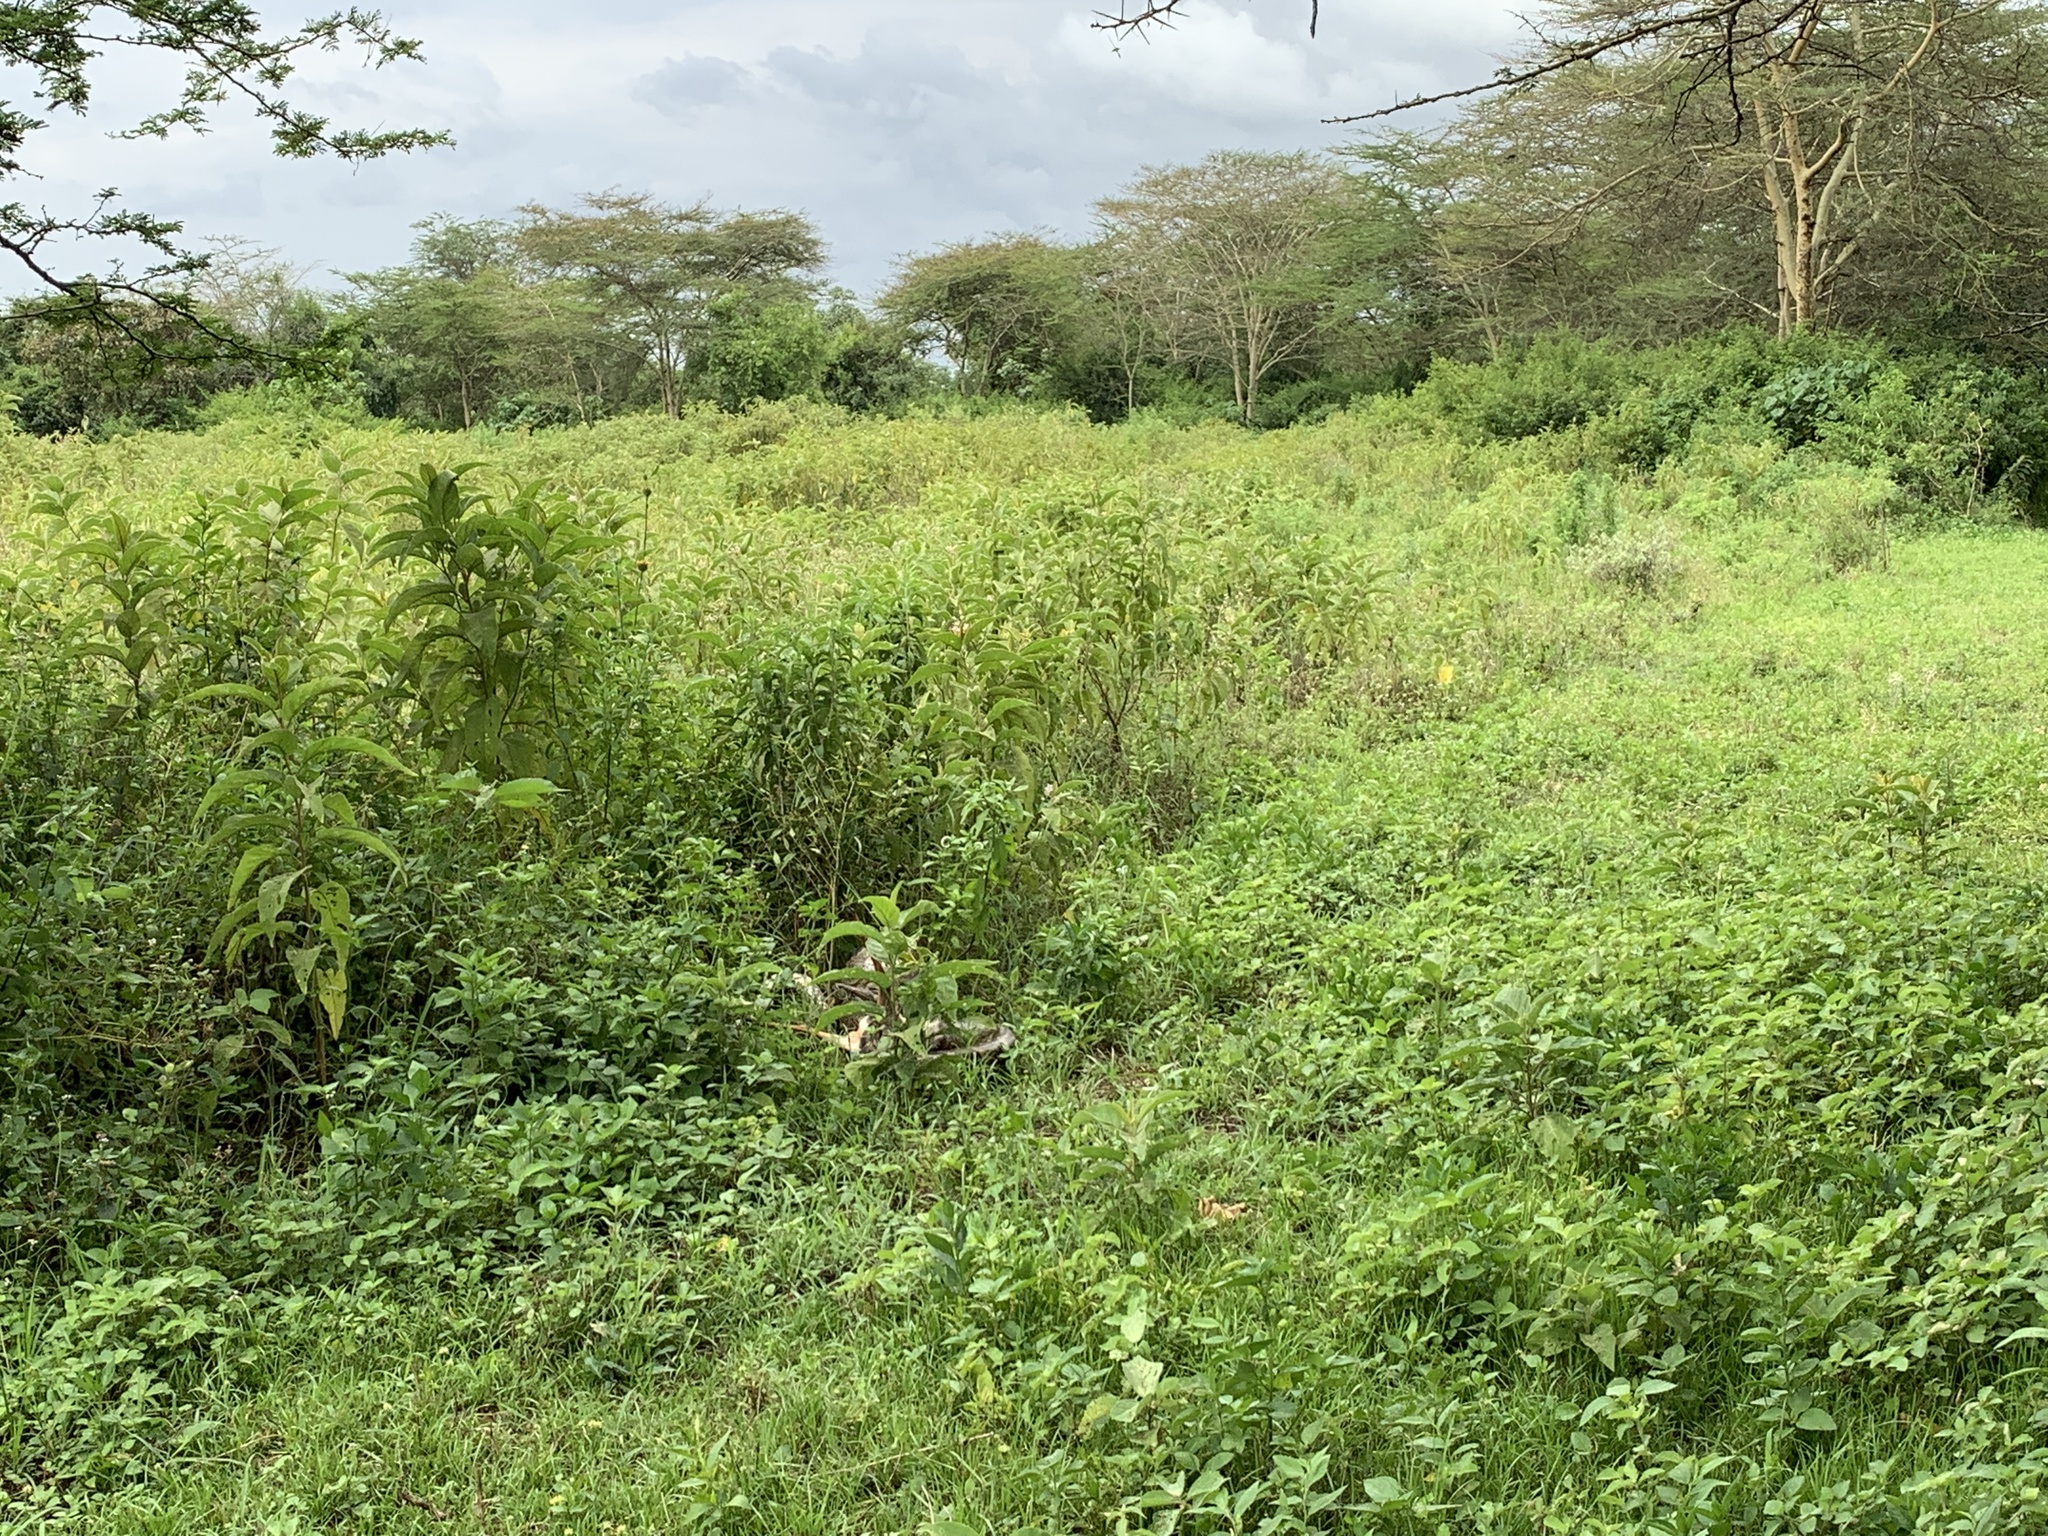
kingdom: Animalia
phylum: Chordata
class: Squamata
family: Pythonidae
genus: Python
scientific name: Python sebae
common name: African rock python
